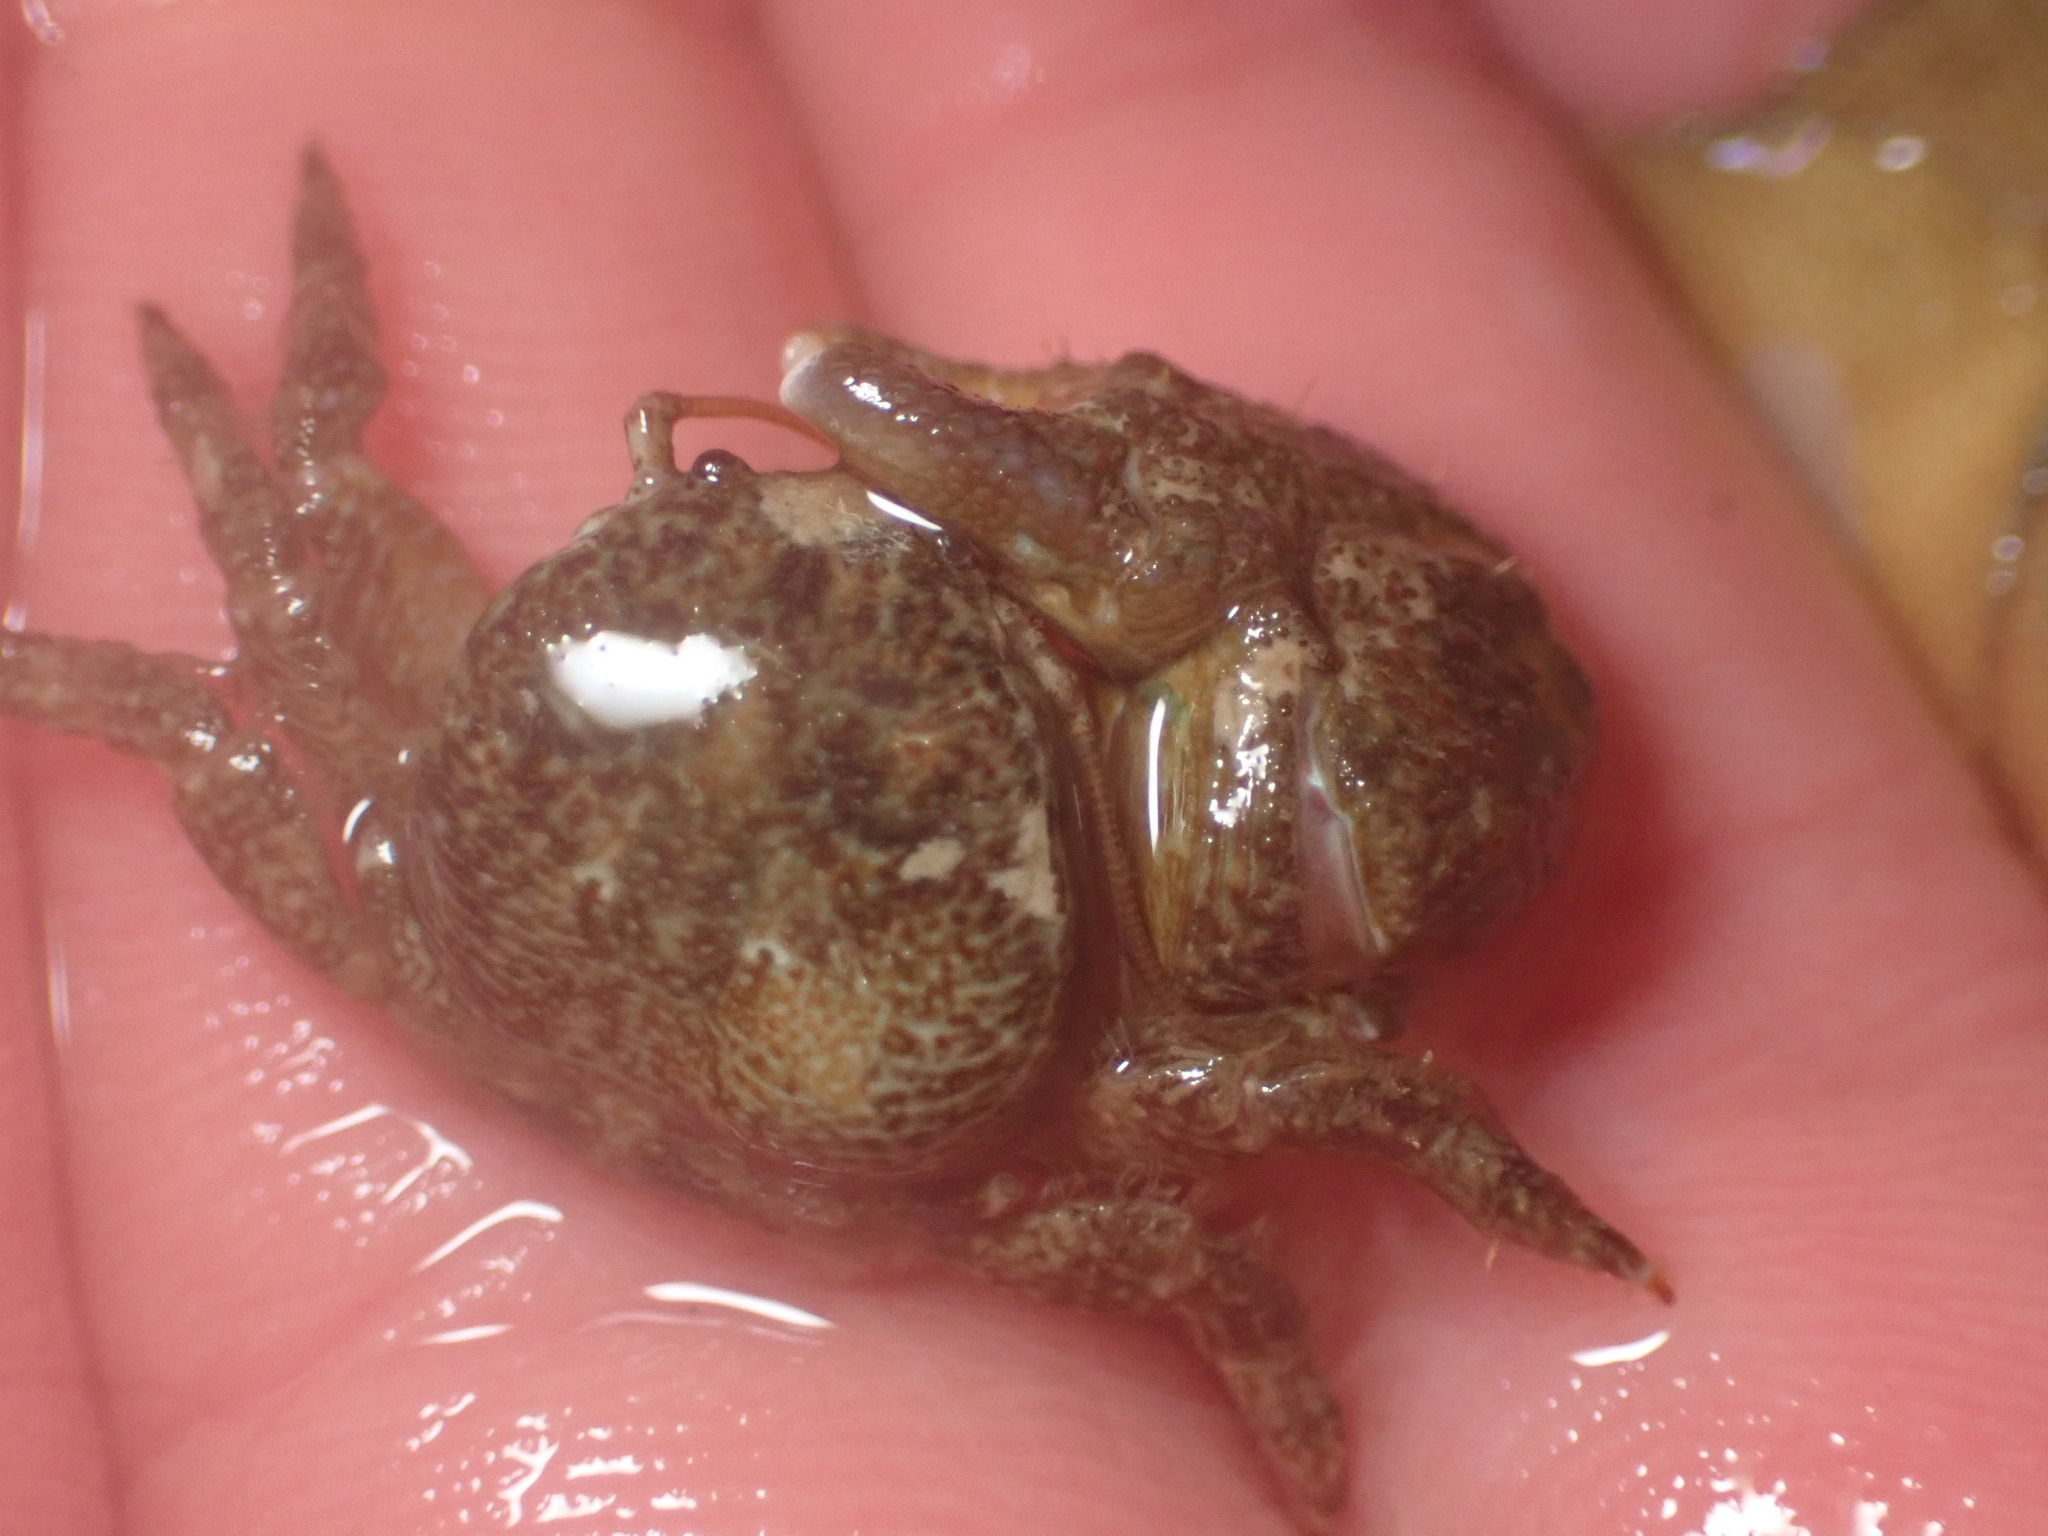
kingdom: Animalia
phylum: Arthropoda
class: Malacostraca
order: Decapoda
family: Porcellanidae
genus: Pachycheles
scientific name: Pachycheles rudis
